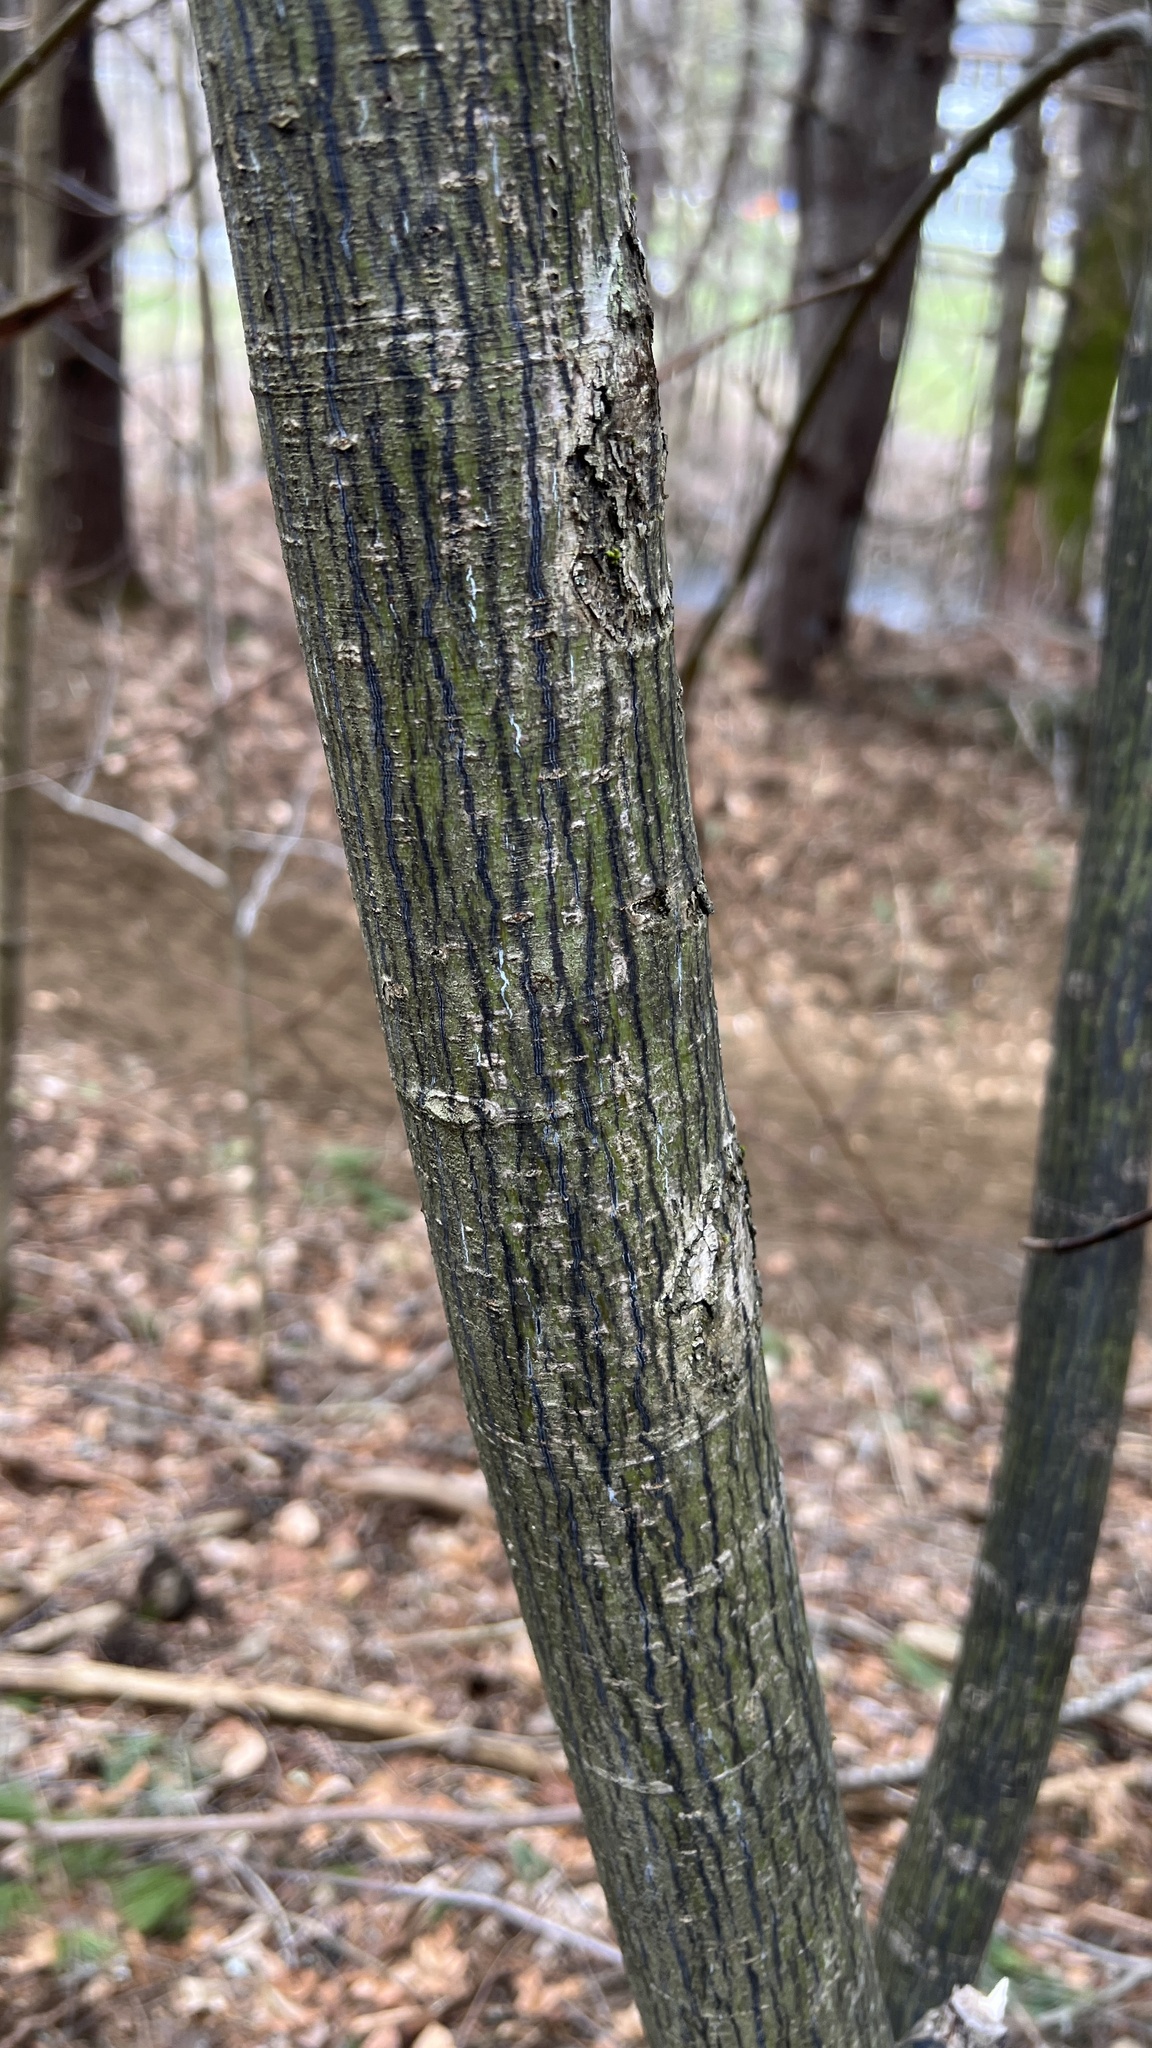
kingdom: Plantae
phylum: Tracheophyta
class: Magnoliopsida
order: Sapindales
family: Sapindaceae
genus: Acer
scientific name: Acer pensylvanicum
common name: Moosewood
